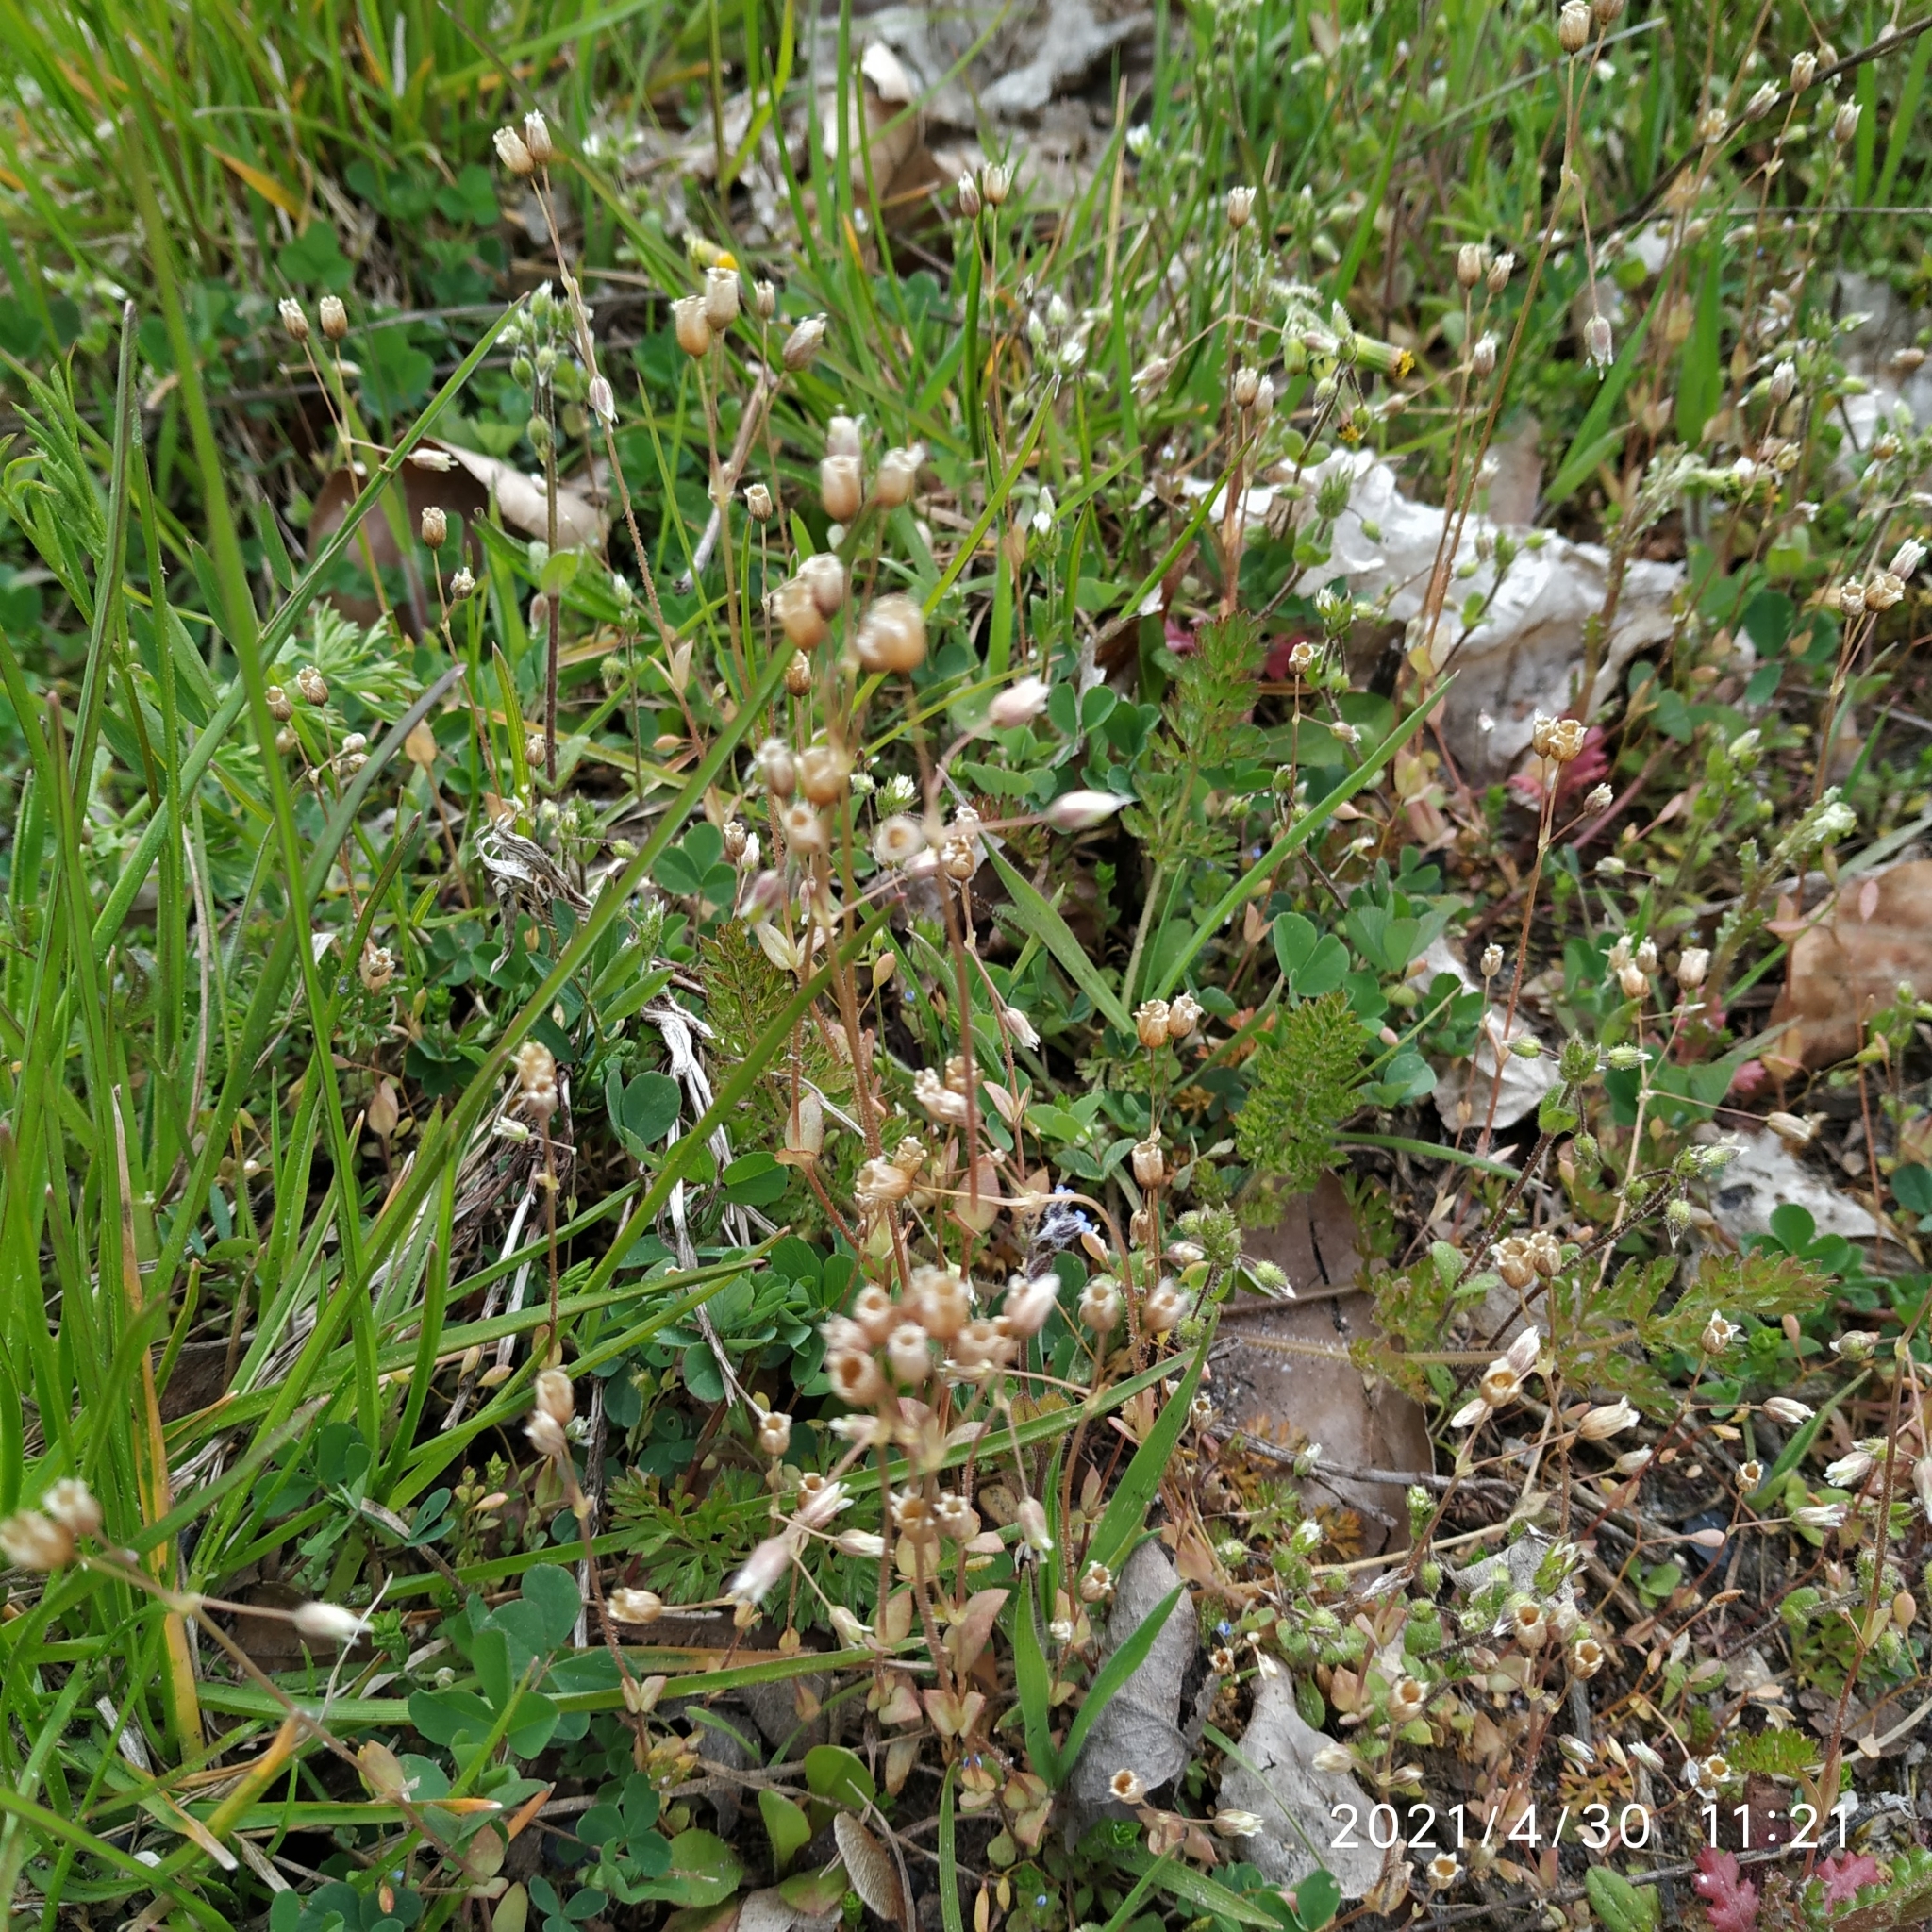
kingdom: Plantae
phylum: Tracheophyta
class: Magnoliopsida
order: Caryophyllales
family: Caryophyllaceae
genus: Holosteum
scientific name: Holosteum umbellatum
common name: Jagged chickweed
